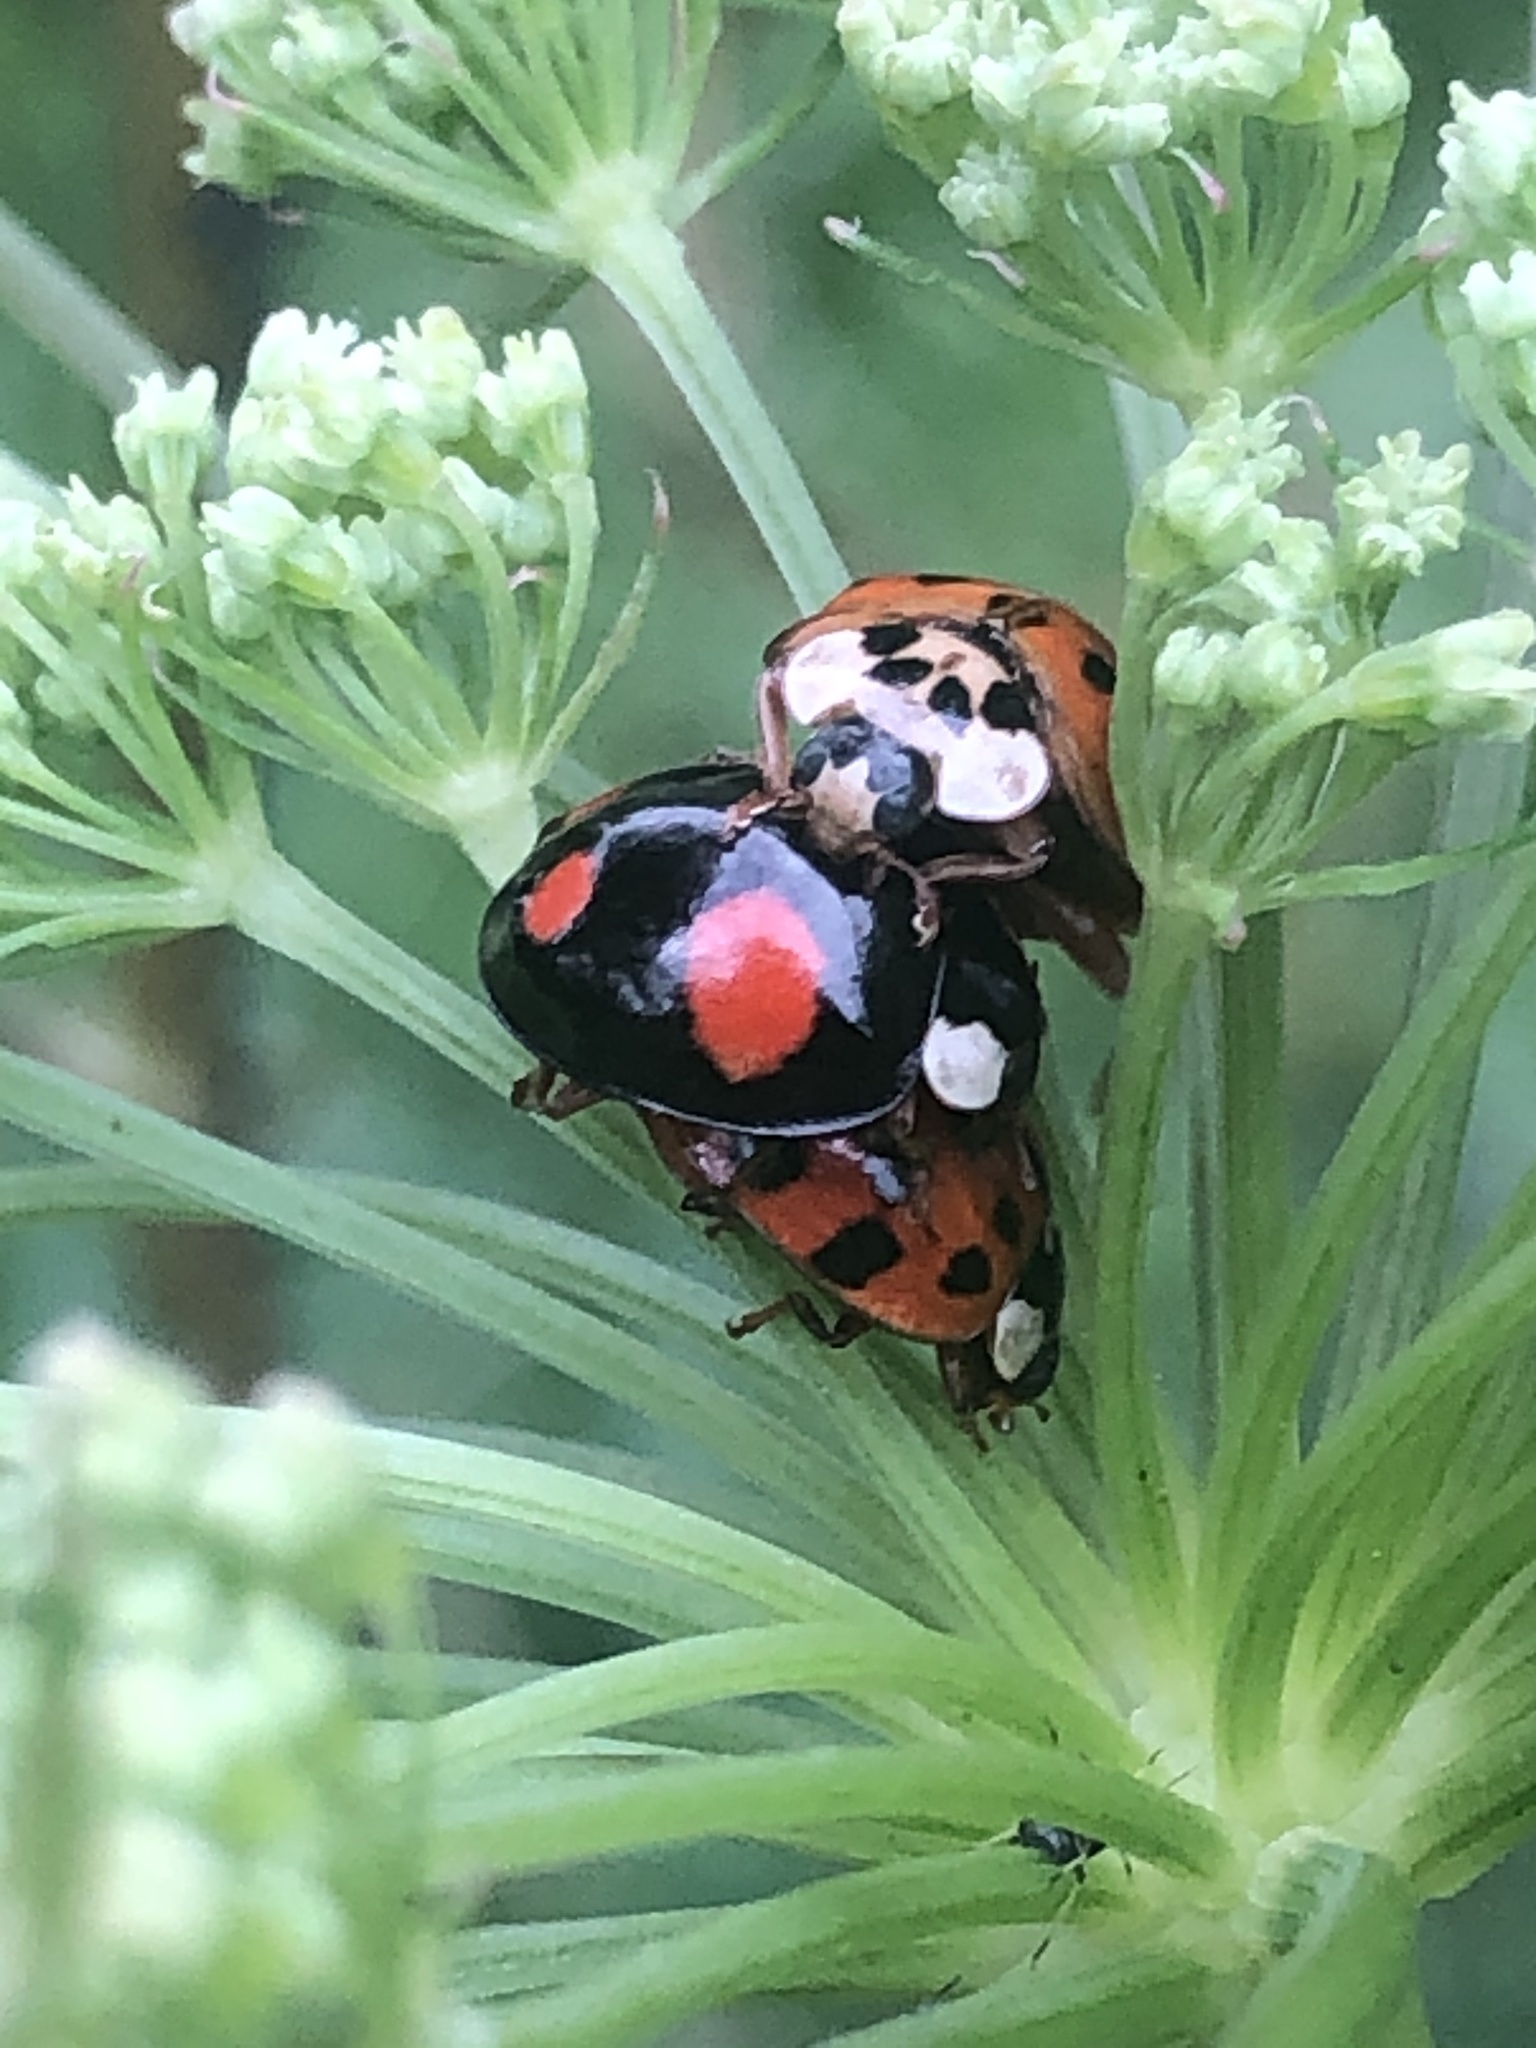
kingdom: Animalia
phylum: Arthropoda
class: Insecta
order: Coleoptera
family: Coccinellidae
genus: Harmonia
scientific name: Harmonia axyridis
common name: Harlequin ladybird
